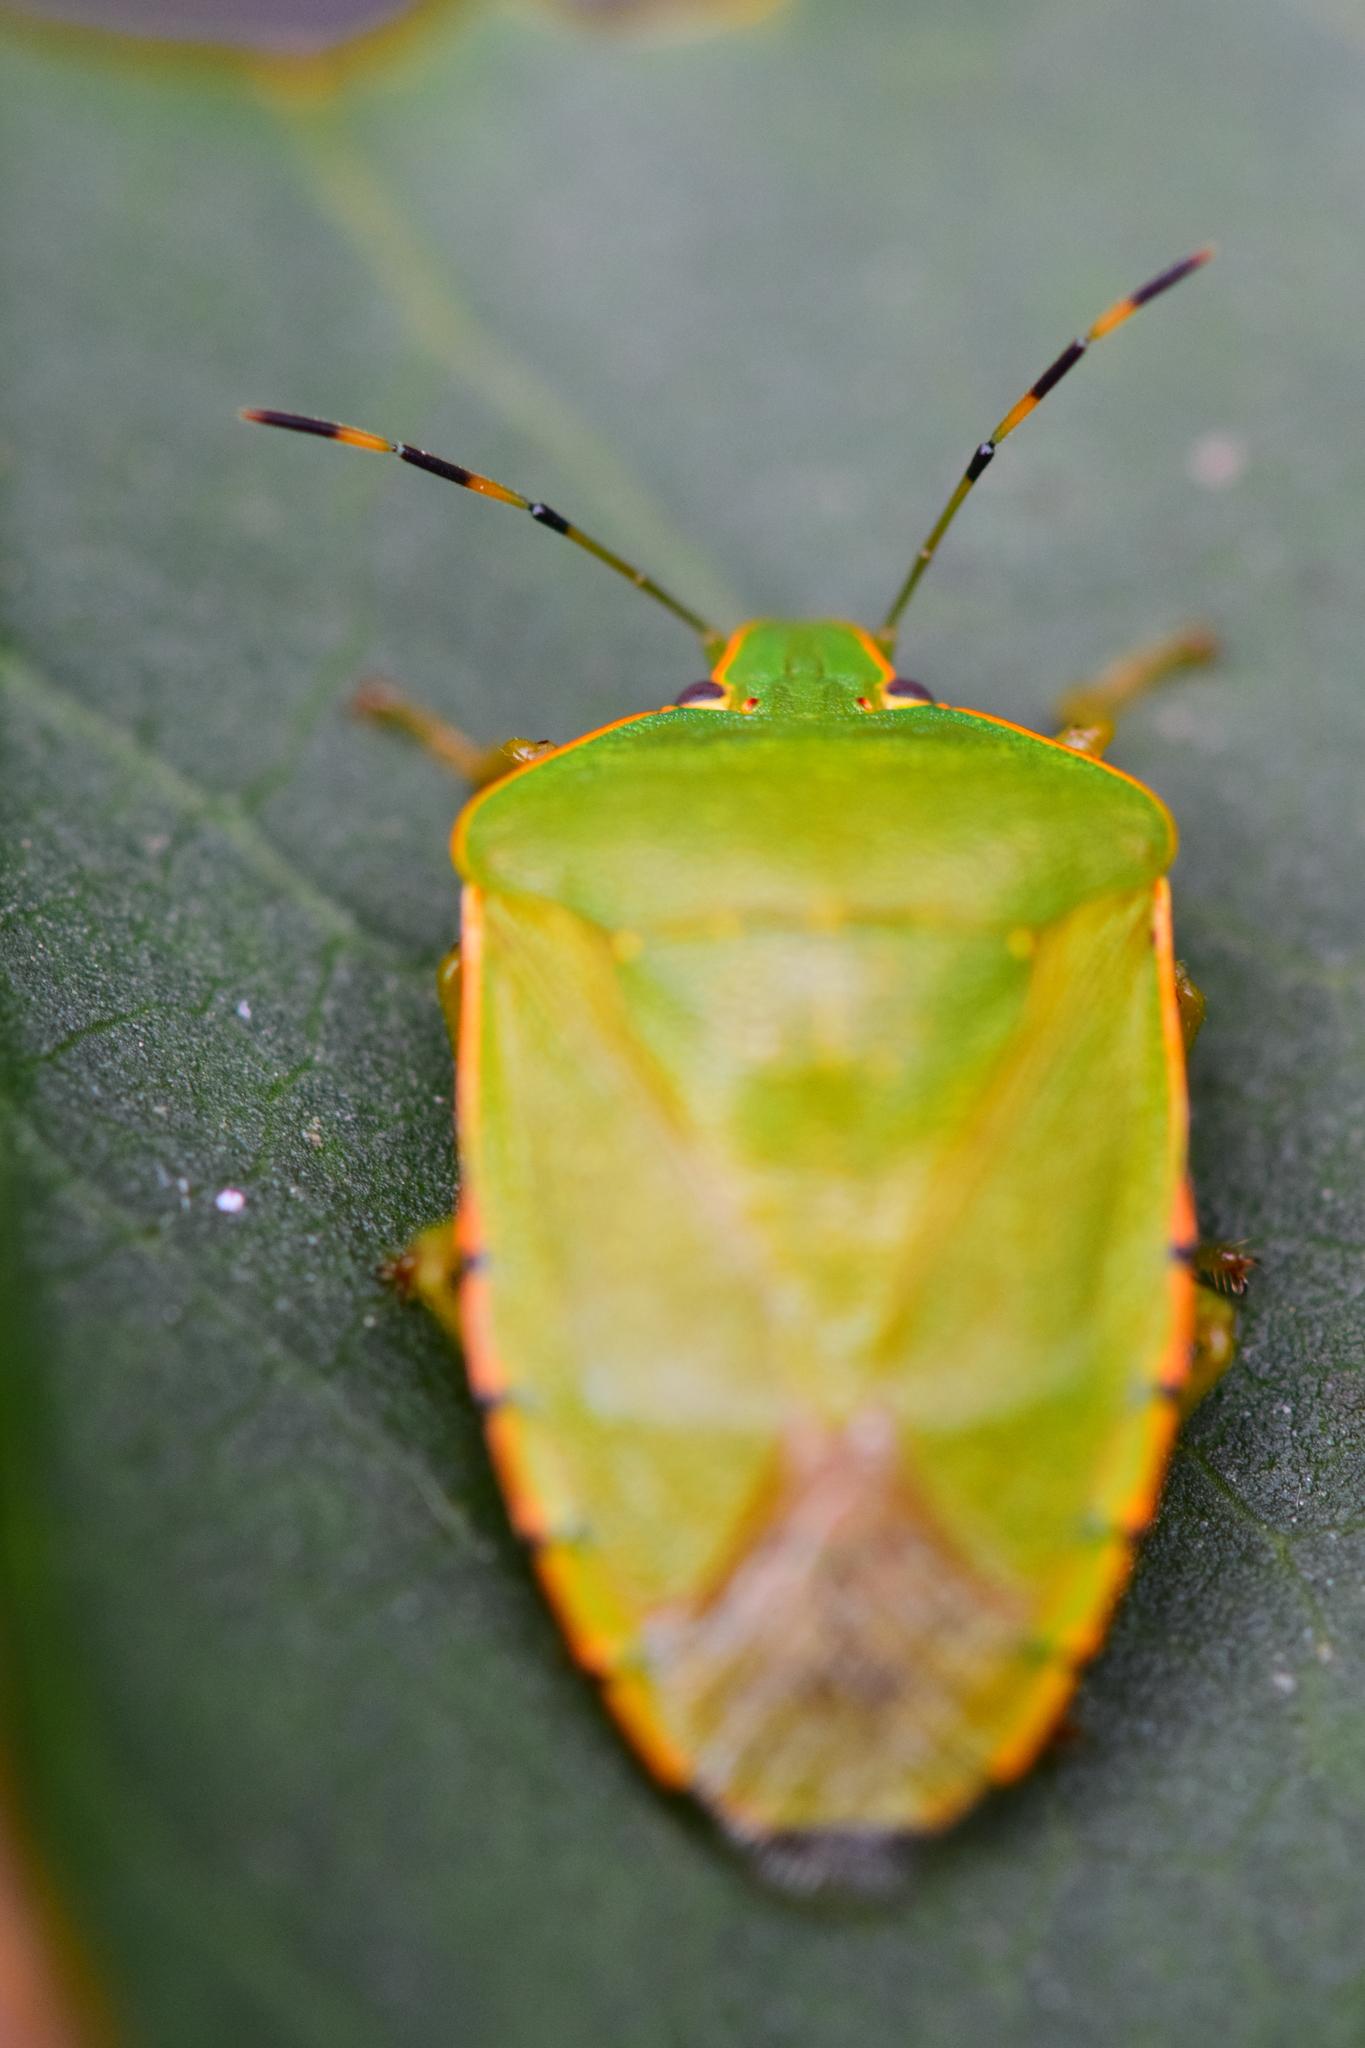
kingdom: Animalia
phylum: Arthropoda
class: Insecta
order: Hemiptera
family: Pentatomidae
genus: Chinavia
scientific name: Chinavia hilaris
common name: Green stink bug
